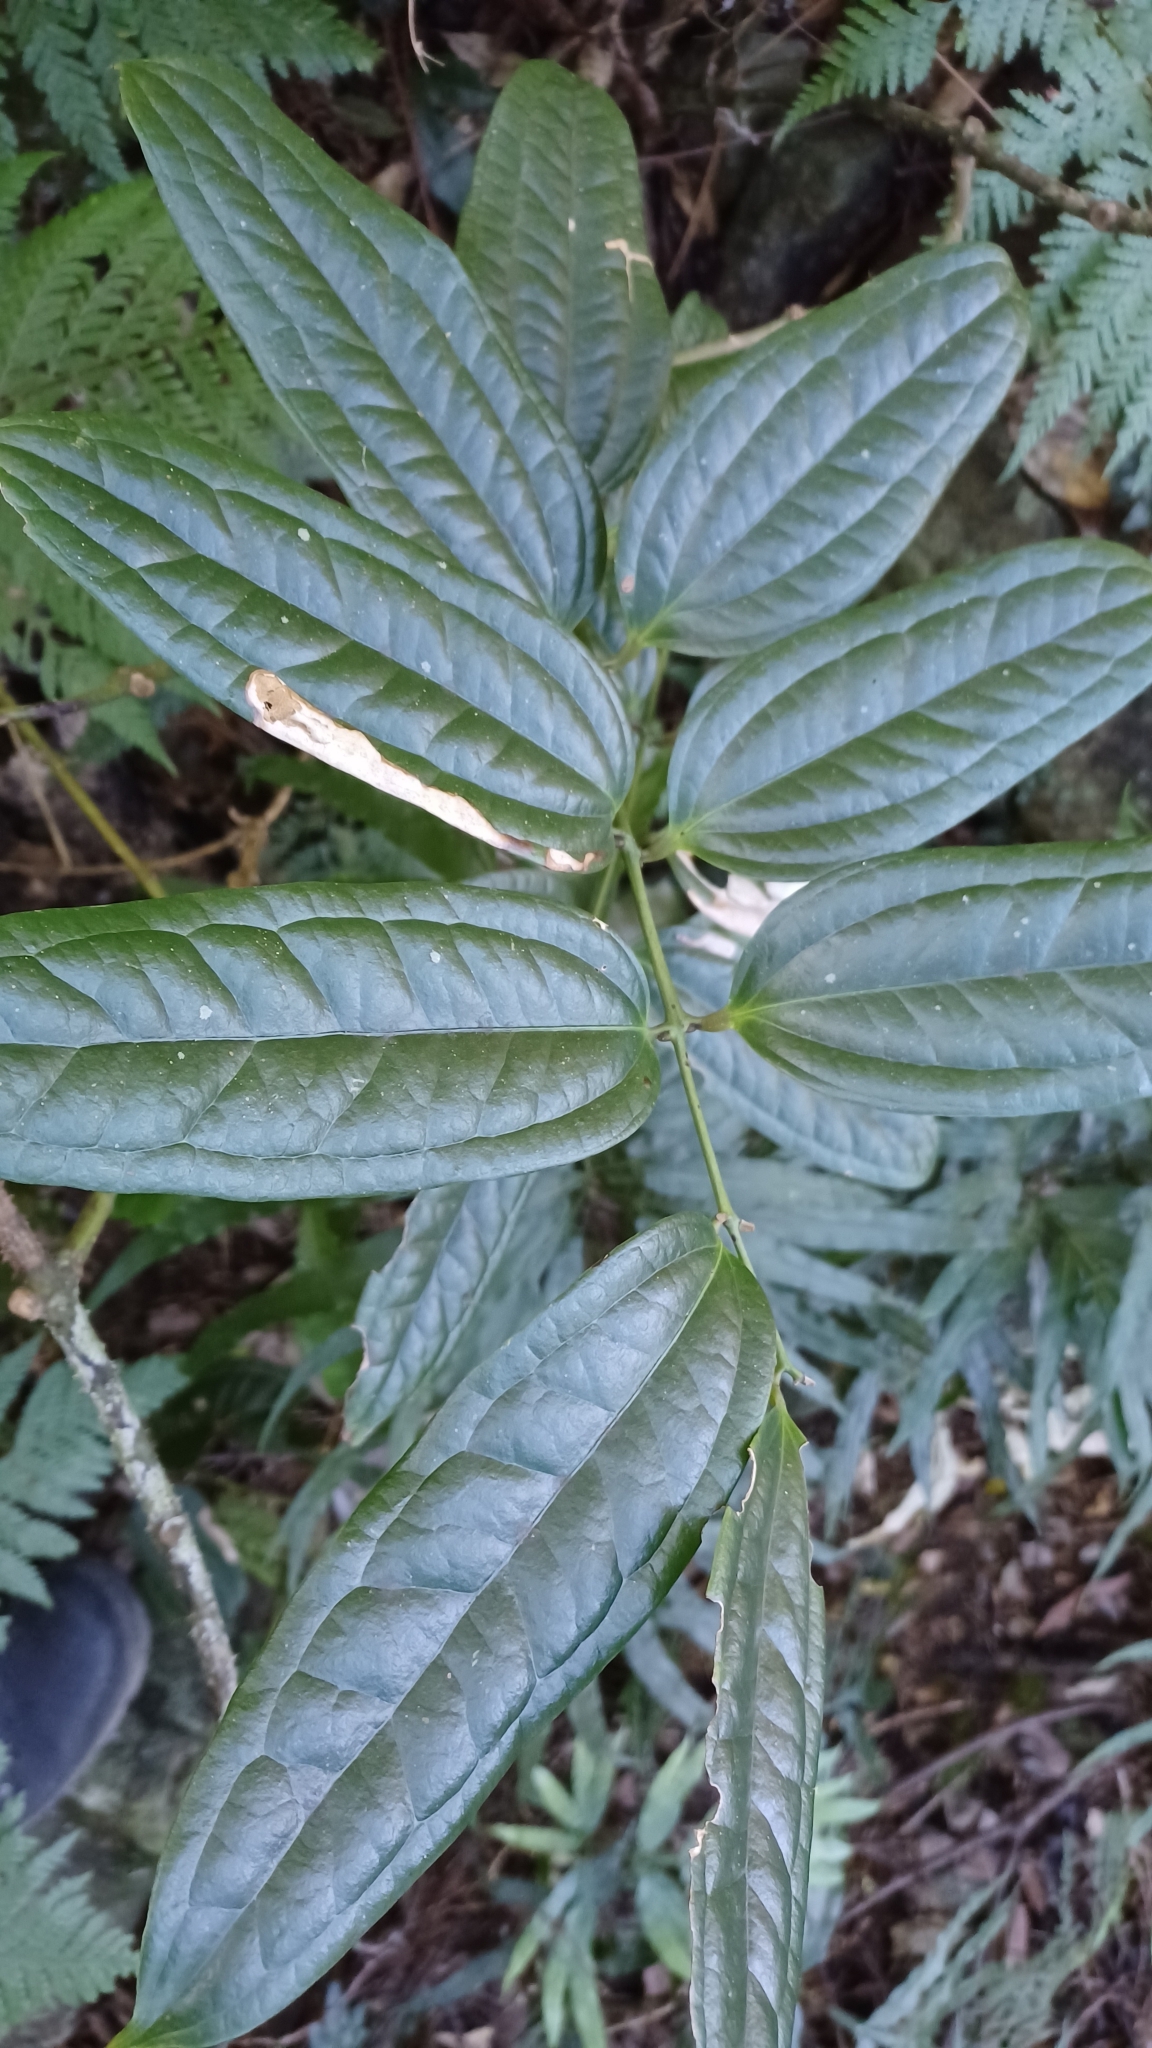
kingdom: Plantae
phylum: Tracheophyta
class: Liliopsida
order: Liliales
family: Ripogonaceae
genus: Ripogonum
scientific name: Ripogonum discolor
